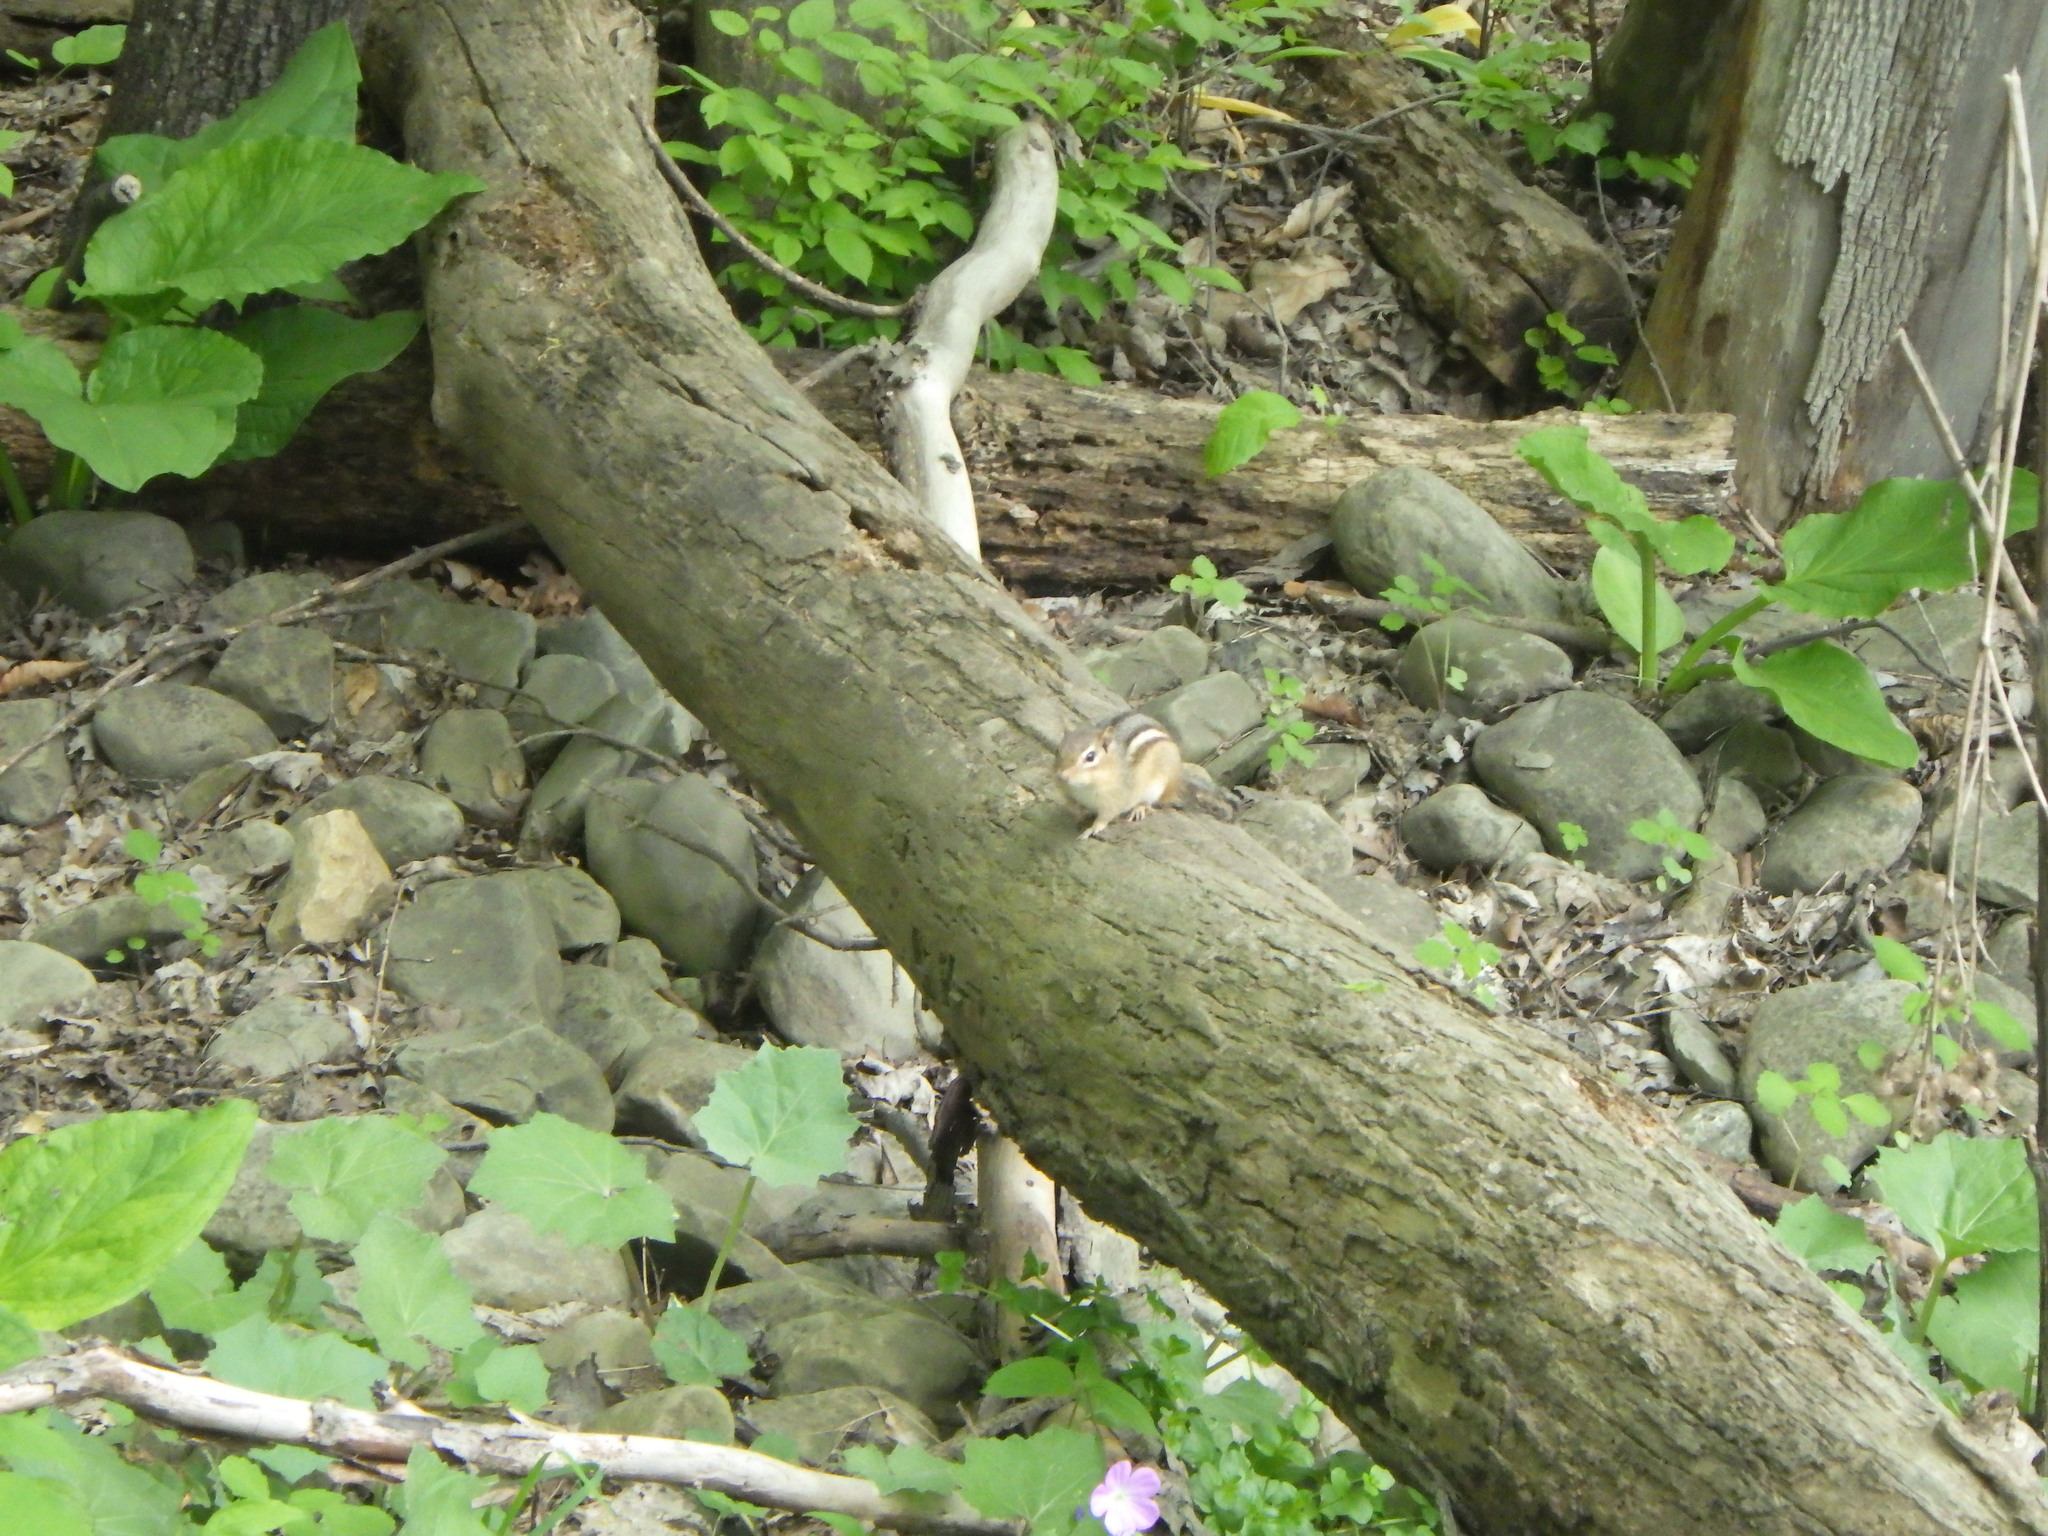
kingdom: Animalia
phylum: Chordata
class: Mammalia
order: Rodentia
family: Sciuridae
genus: Tamias
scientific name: Tamias striatus
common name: Eastern chipmunk
